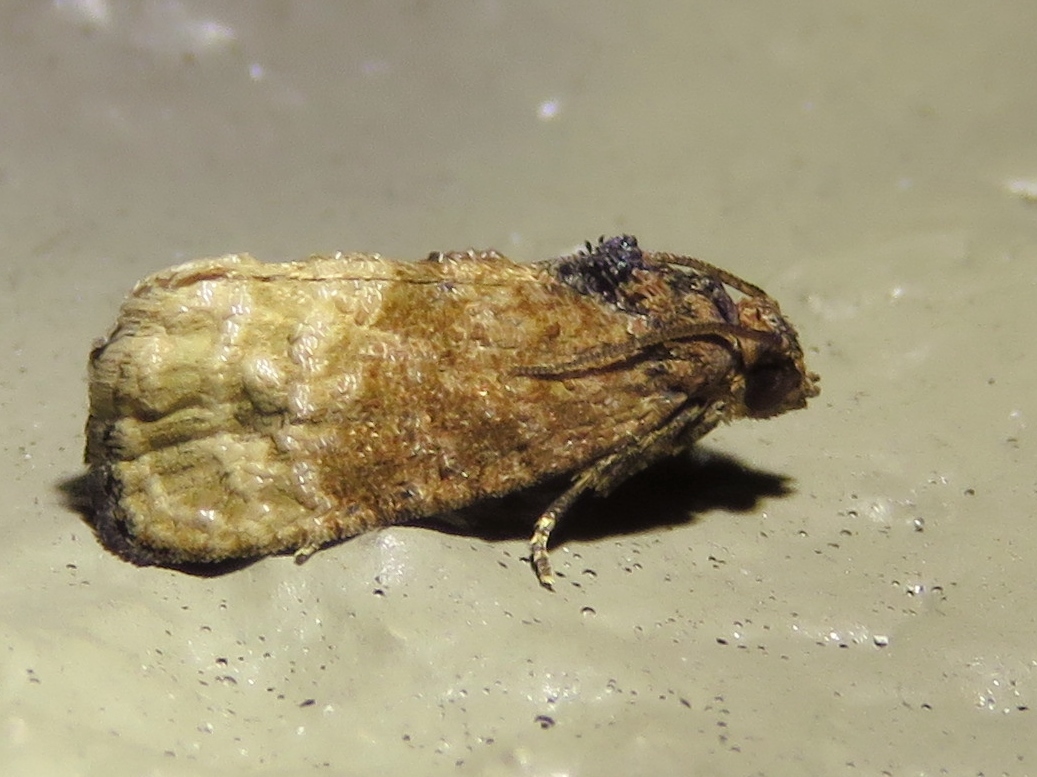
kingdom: Animalia
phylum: Arthropoda
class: Insecta
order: Lepidoptera
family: Tortricidae
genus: Ecdytolopha
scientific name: Ecdytolopha mana
